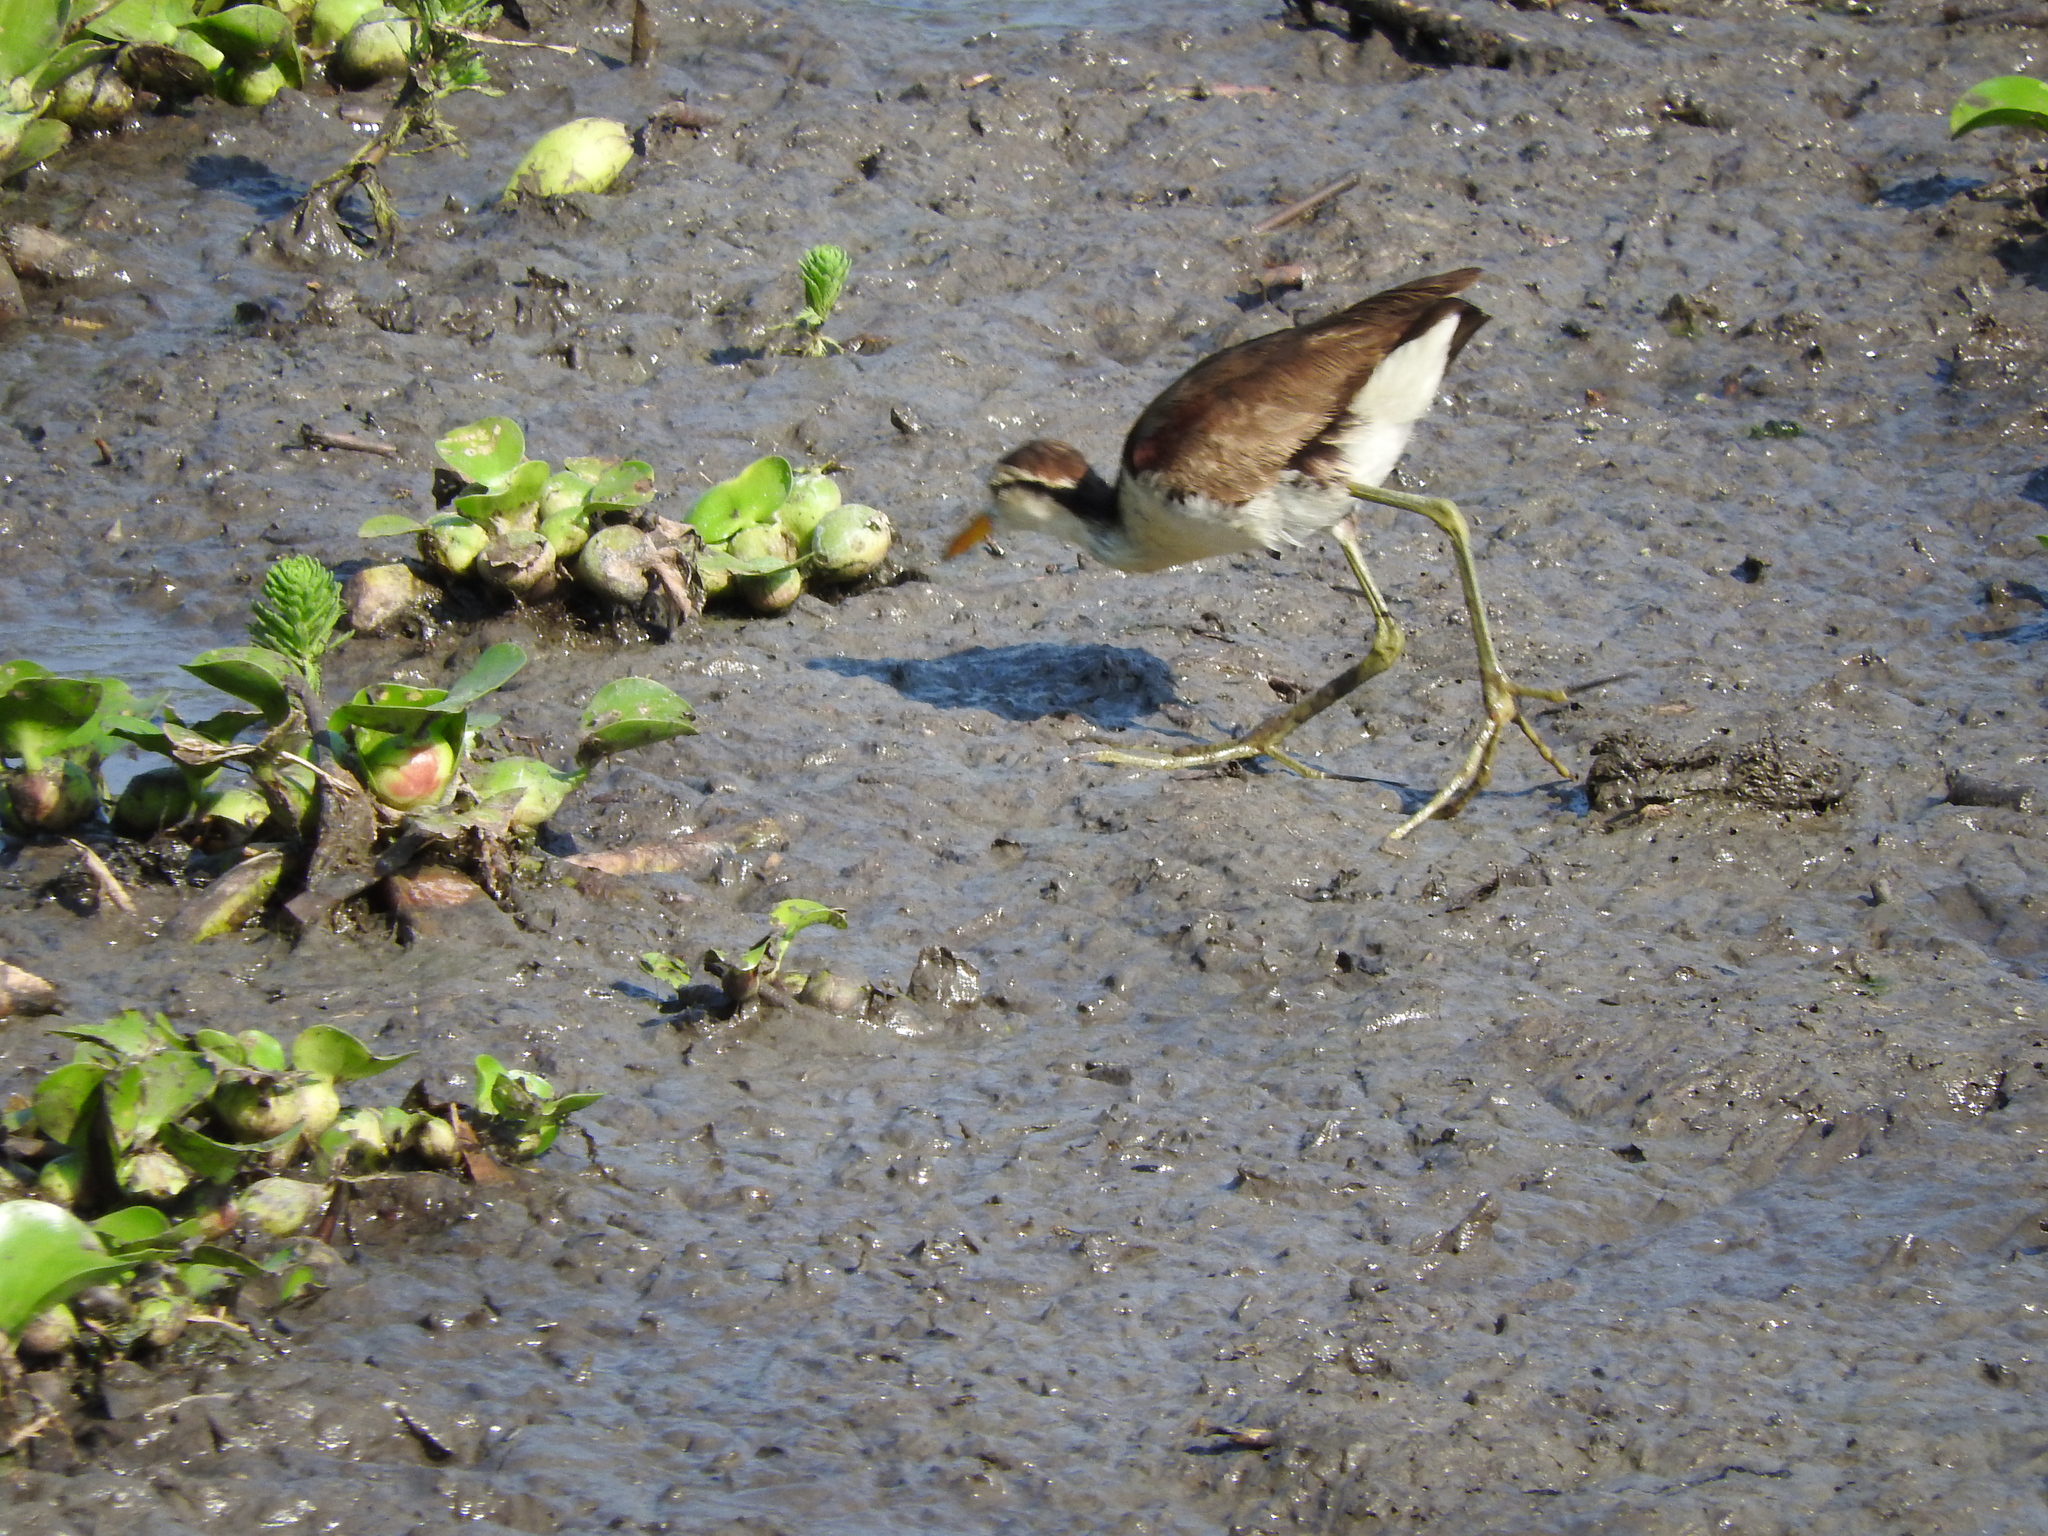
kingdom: Animalia
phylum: Chordata
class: Aves
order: Charadriiformes
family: Jacanidae
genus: Jacana
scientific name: Jacana spinosa
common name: Northern jacana
